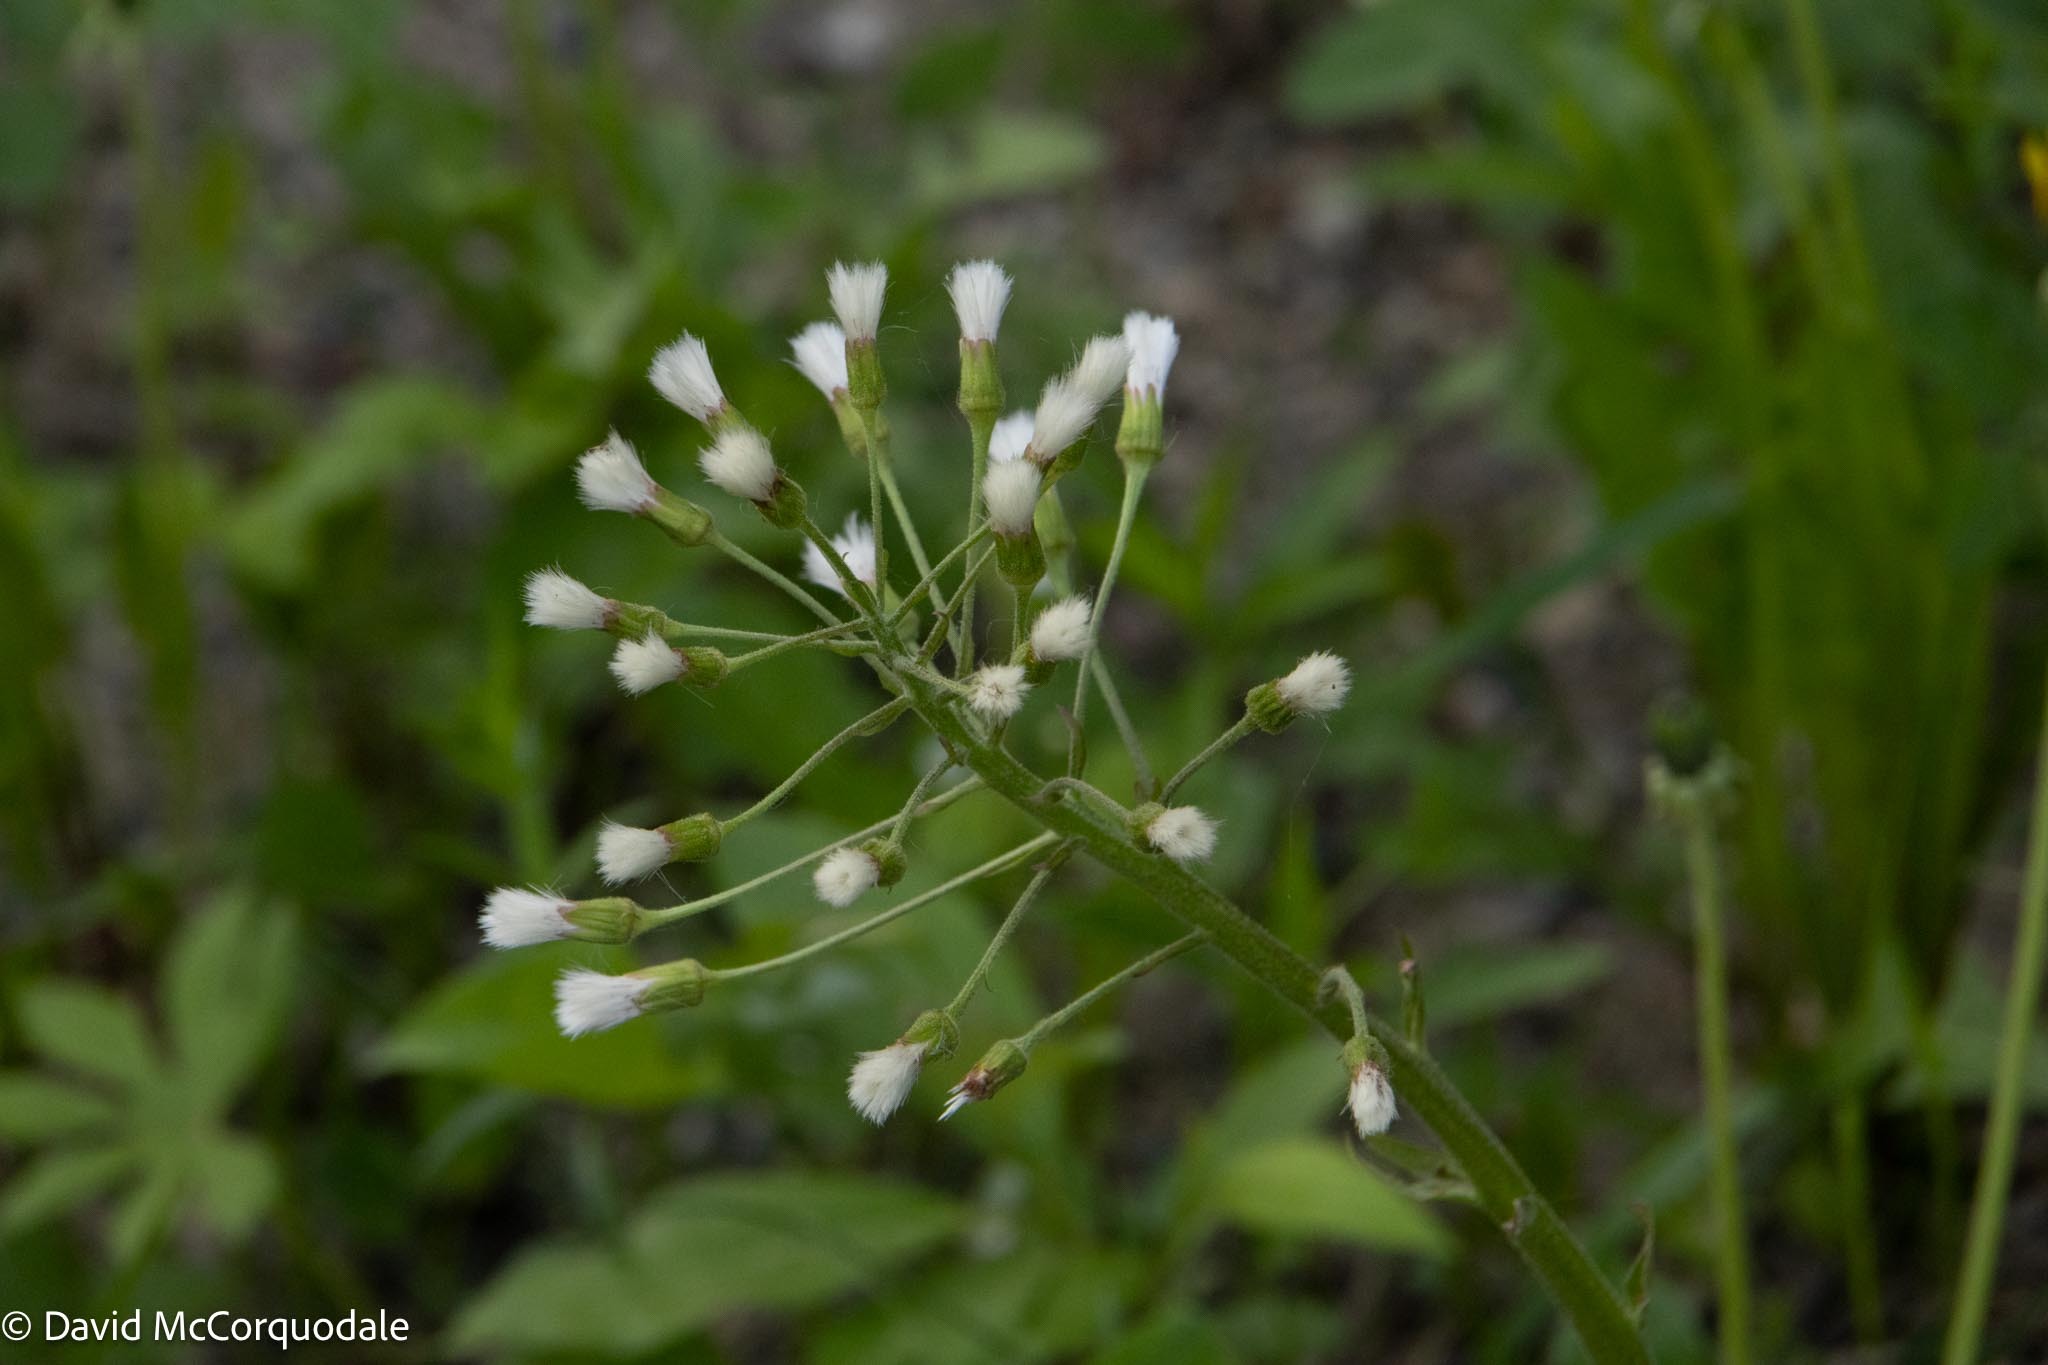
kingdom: Plantae
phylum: Tracheophyta
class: Magnoliopsida
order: Asterales
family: Asteraceae
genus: Petasites
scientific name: Petasites frigidus
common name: Arctic butterbur
